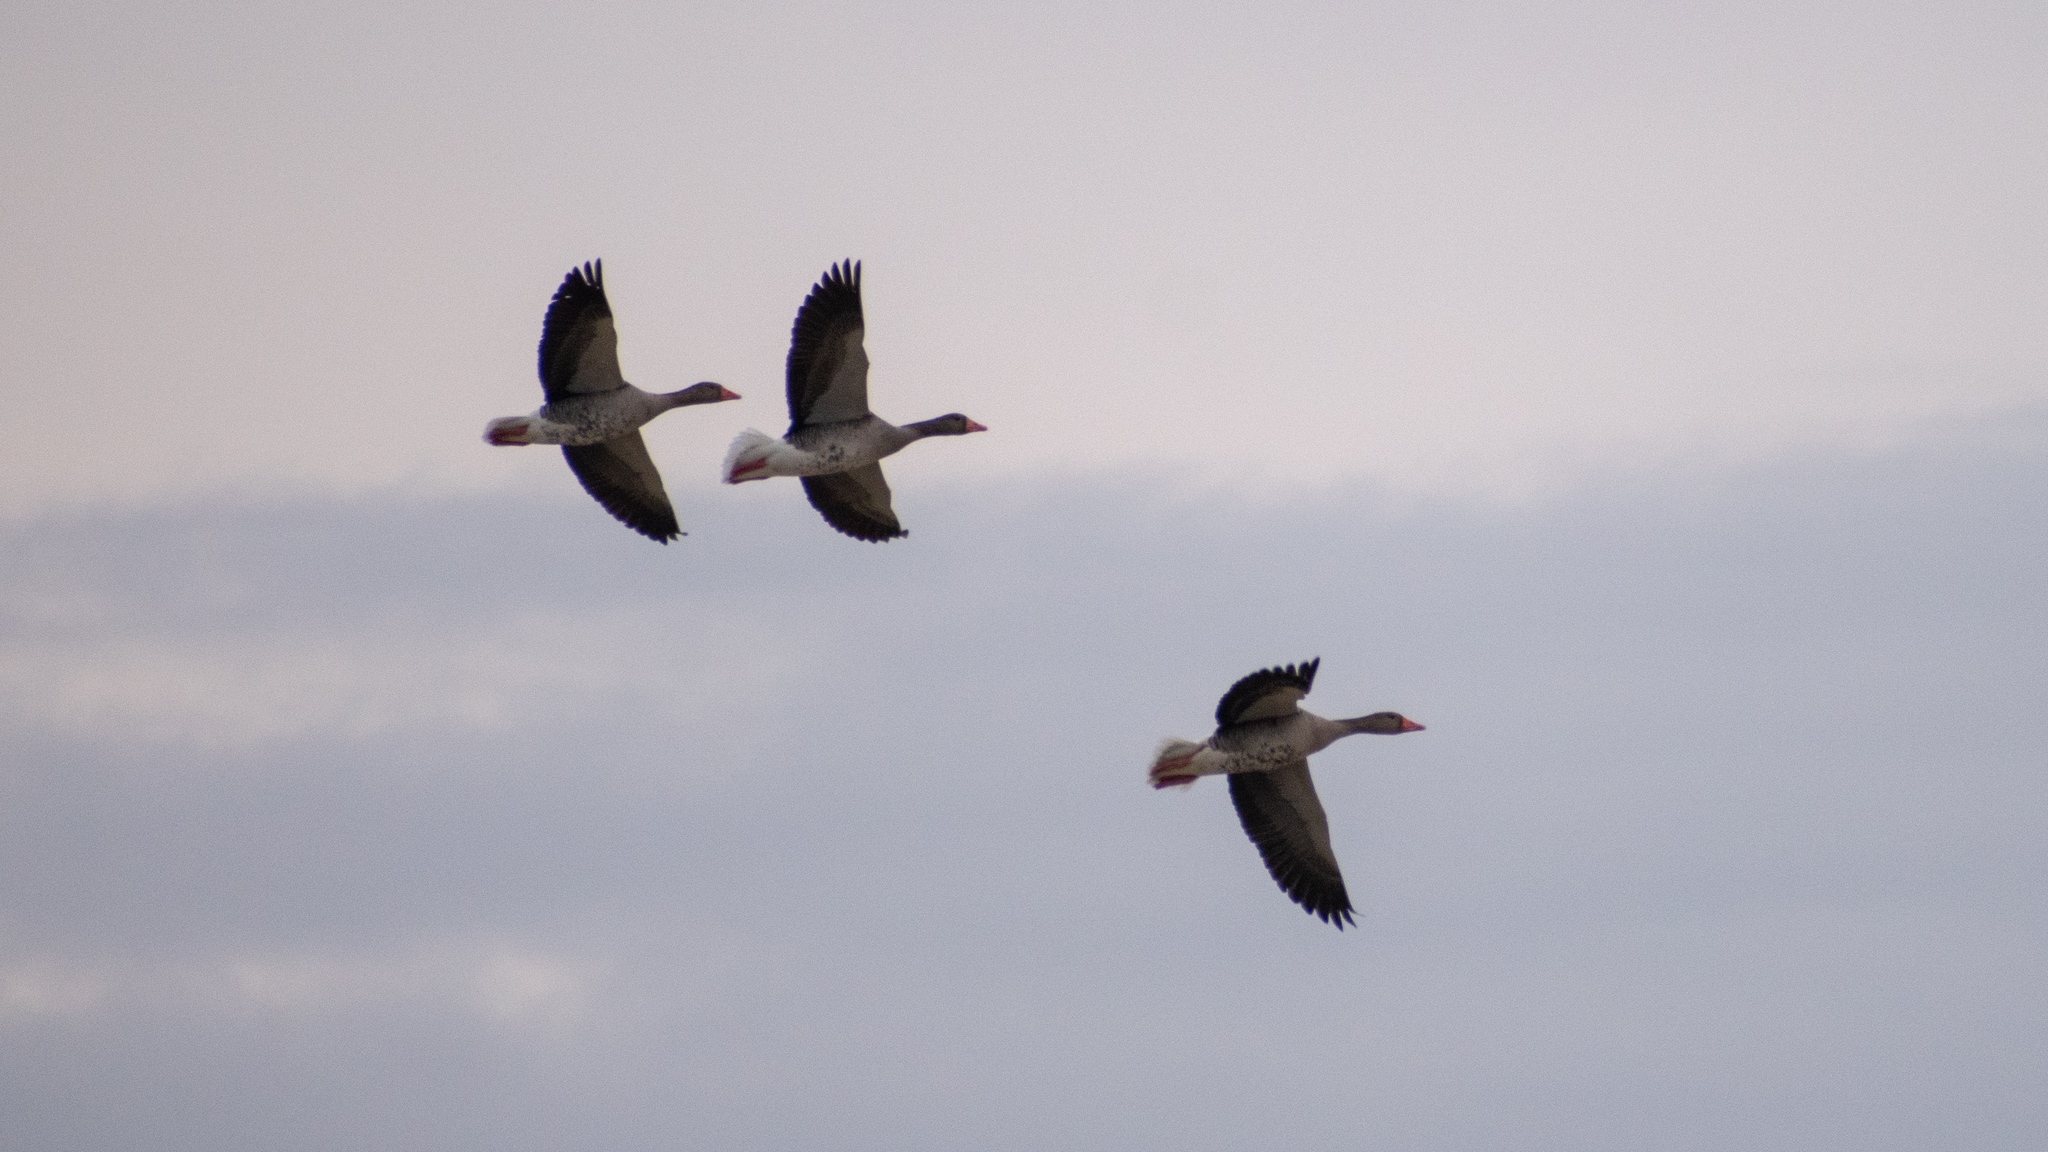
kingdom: Animalia
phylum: Chordata
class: Aves
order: Anseriformes
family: Anatidae
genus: Anser
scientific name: Anser anser
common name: Greylag goose
